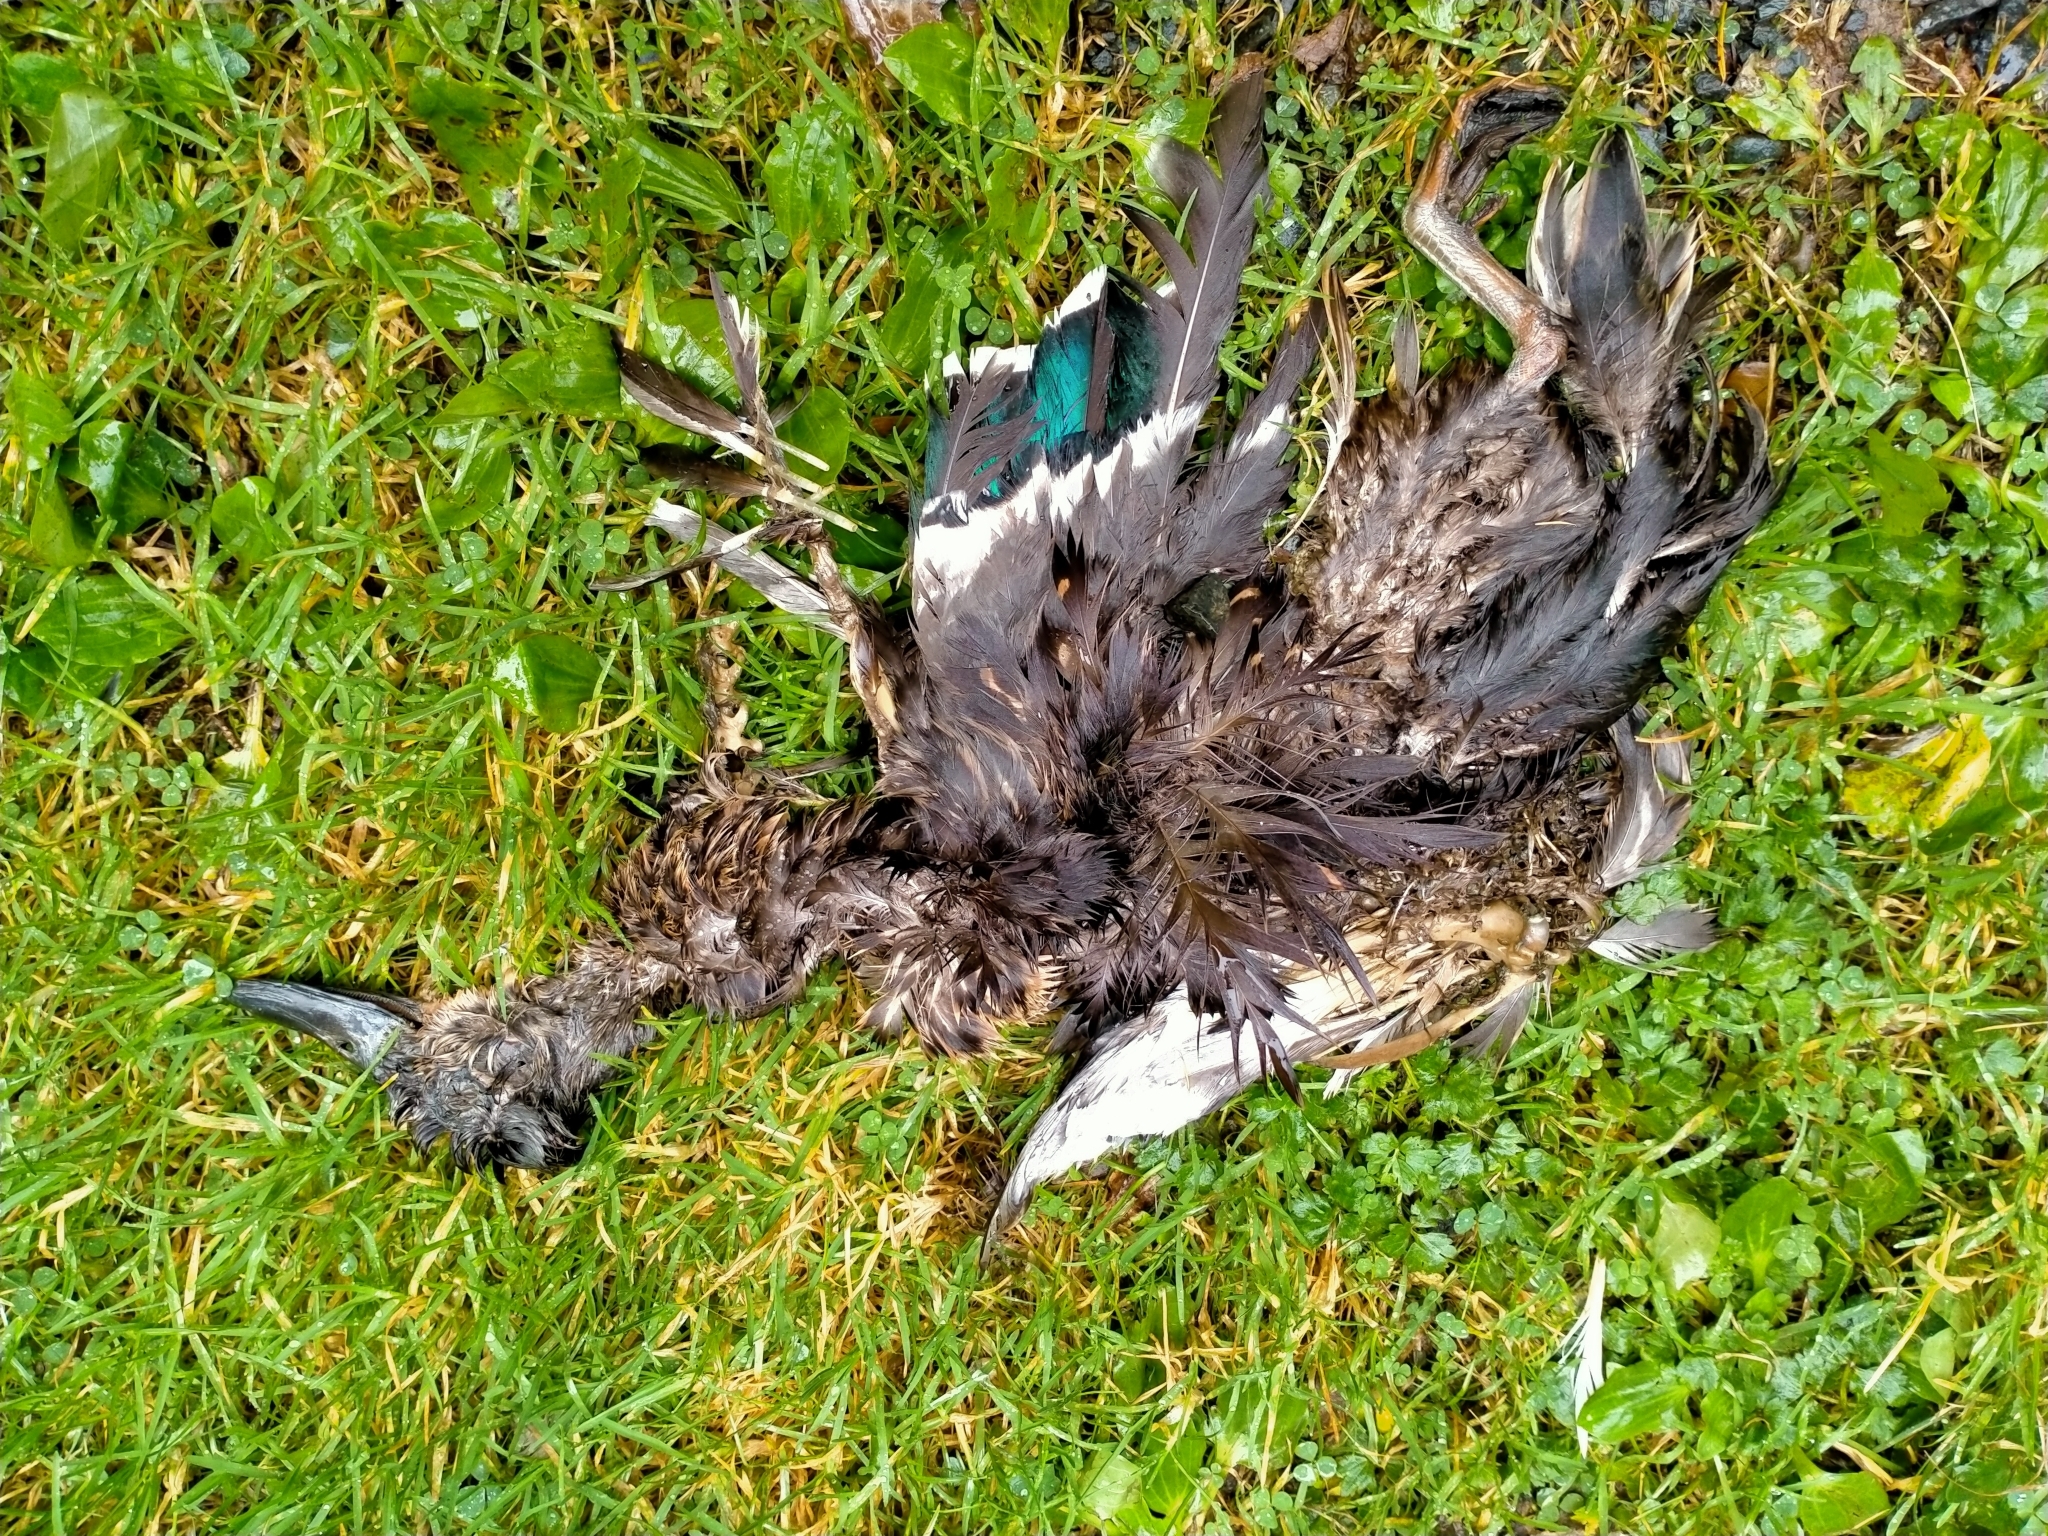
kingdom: Animalia
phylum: Chordata
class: Aves
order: Anseriformes
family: Anatidae
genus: Anas
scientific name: Anas
